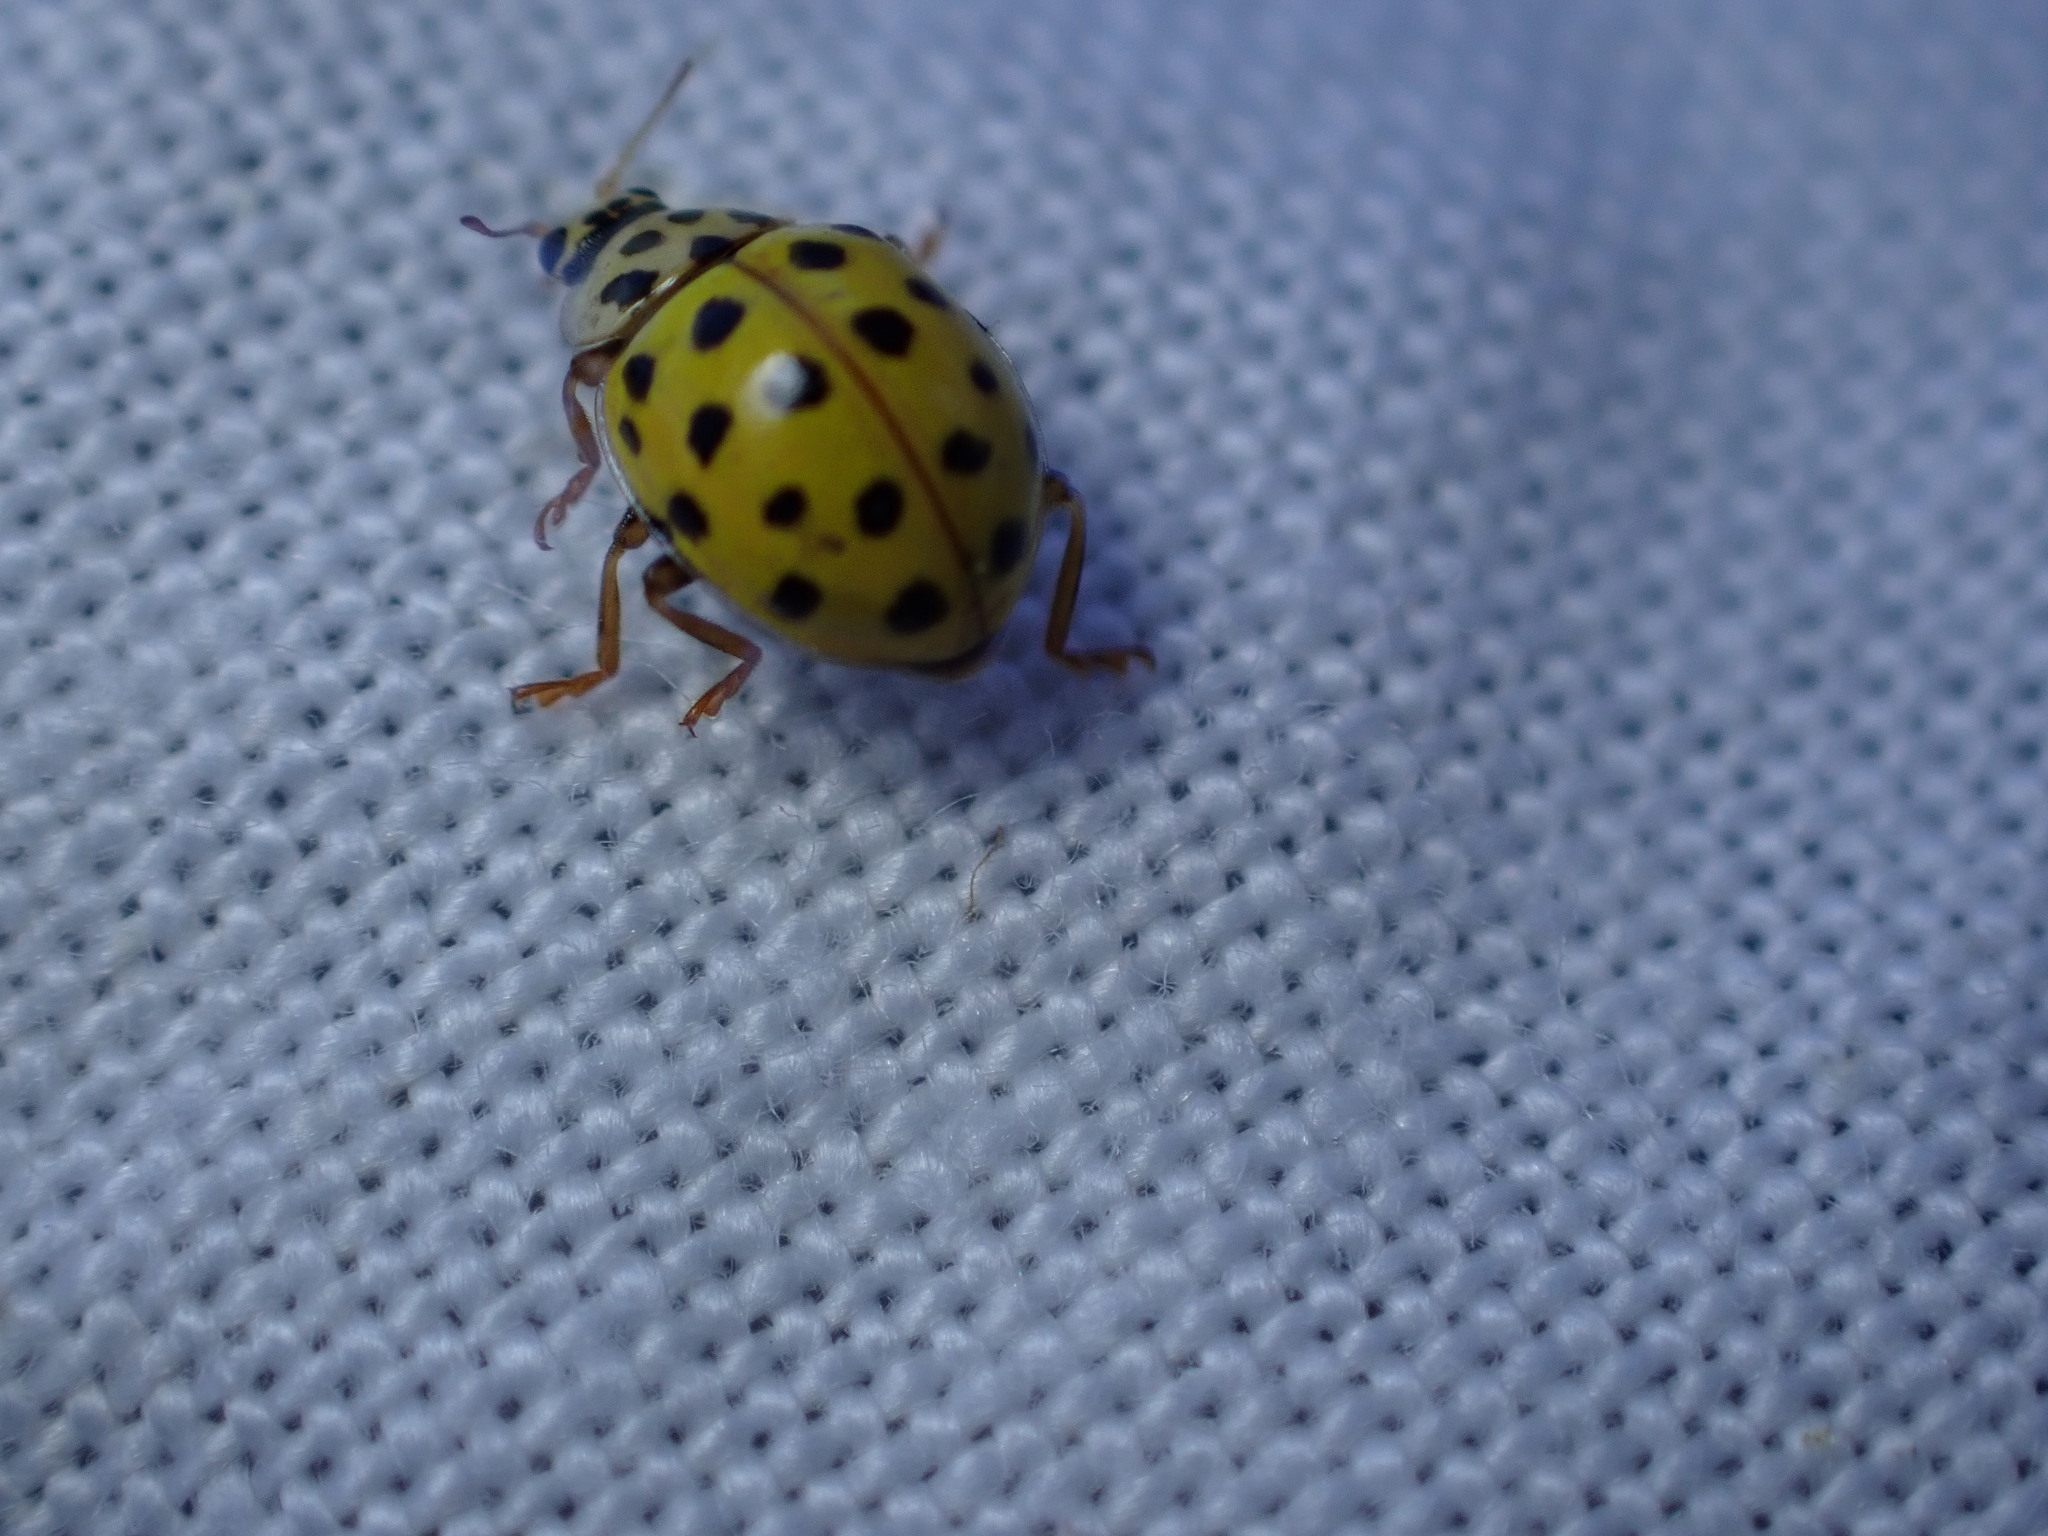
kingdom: Animalia
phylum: Arthropoda
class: Insecta
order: Coleoptera
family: Coccinellidae
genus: Psyllobora
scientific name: Psyllobora vigintiduopunctata
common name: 22-spot ladybird
